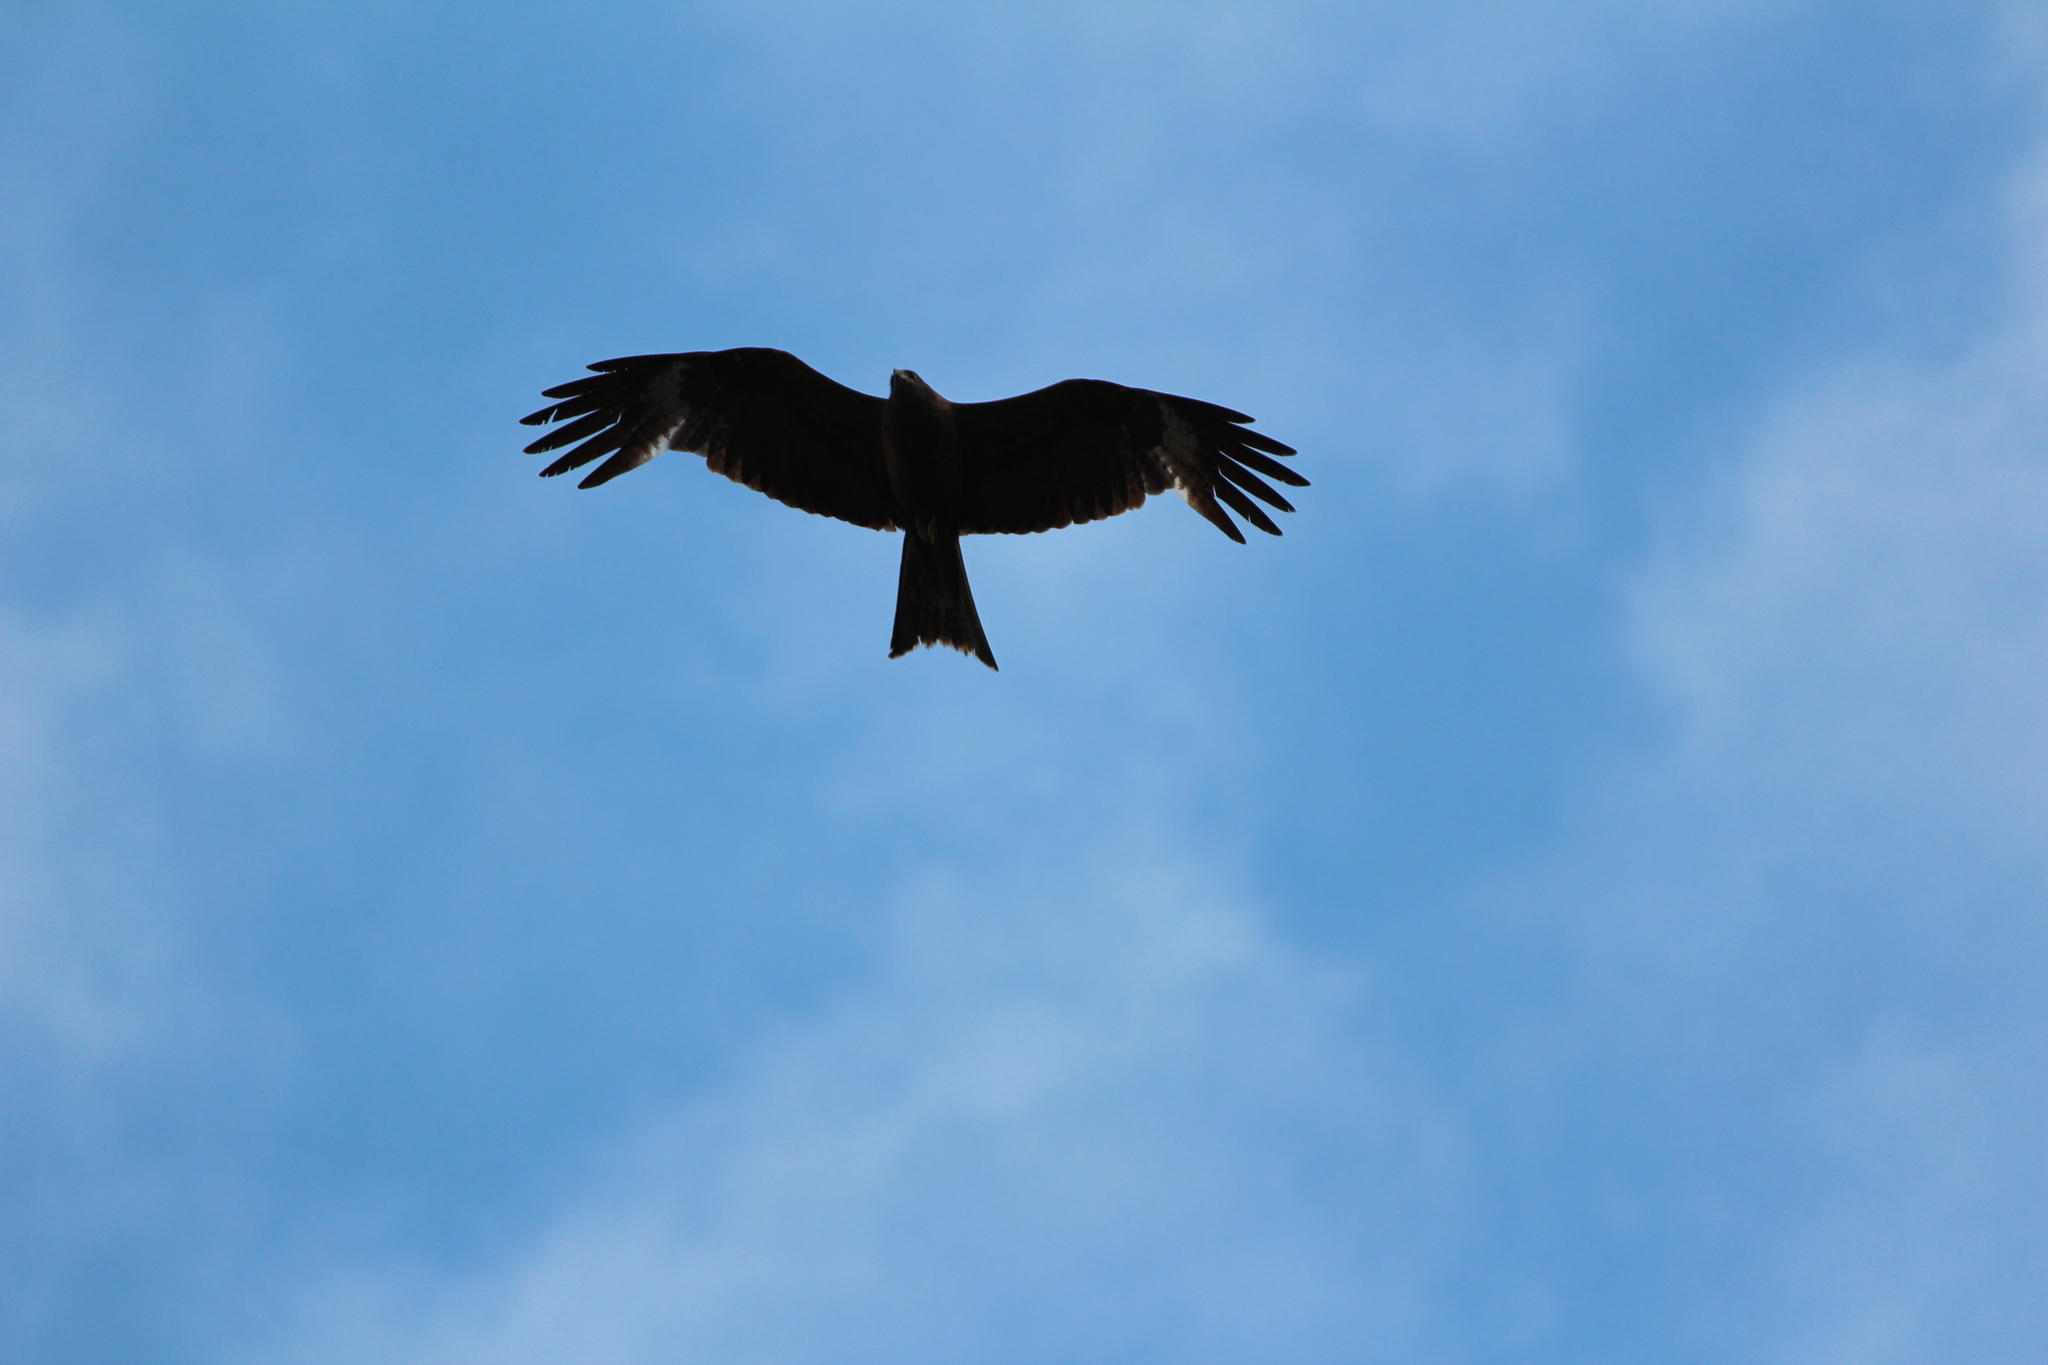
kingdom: Animalia
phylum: Chordata
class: Aves
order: Accipitriformes
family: Accipitridae
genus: Milvus
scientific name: Milvus migrans
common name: Black kite
